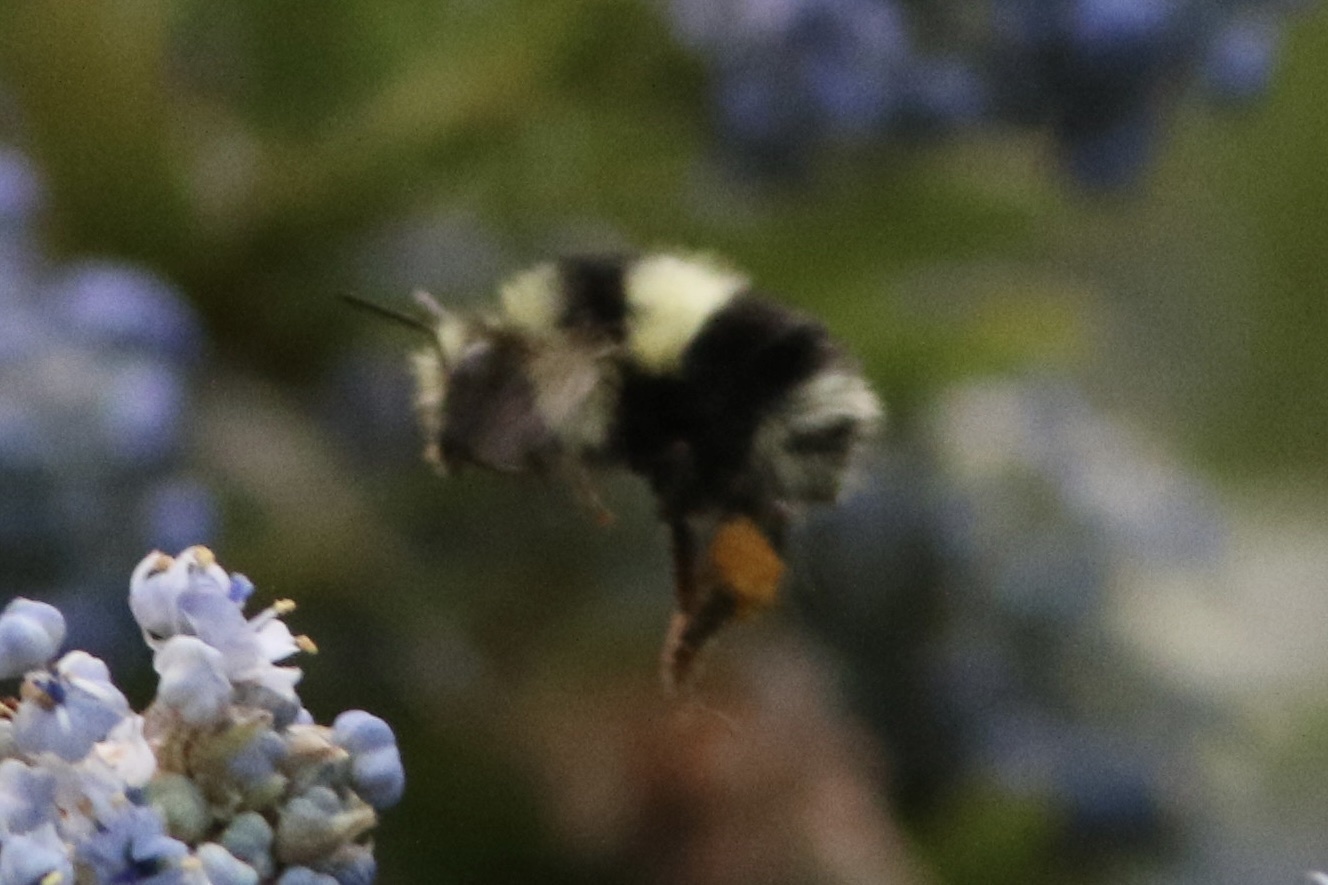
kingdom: Animalia
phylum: Arthropoda
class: Insecta
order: Hymenoptera
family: Apidae
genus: Bombus
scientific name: Bombus melanopygus
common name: Black tail bumble bee
